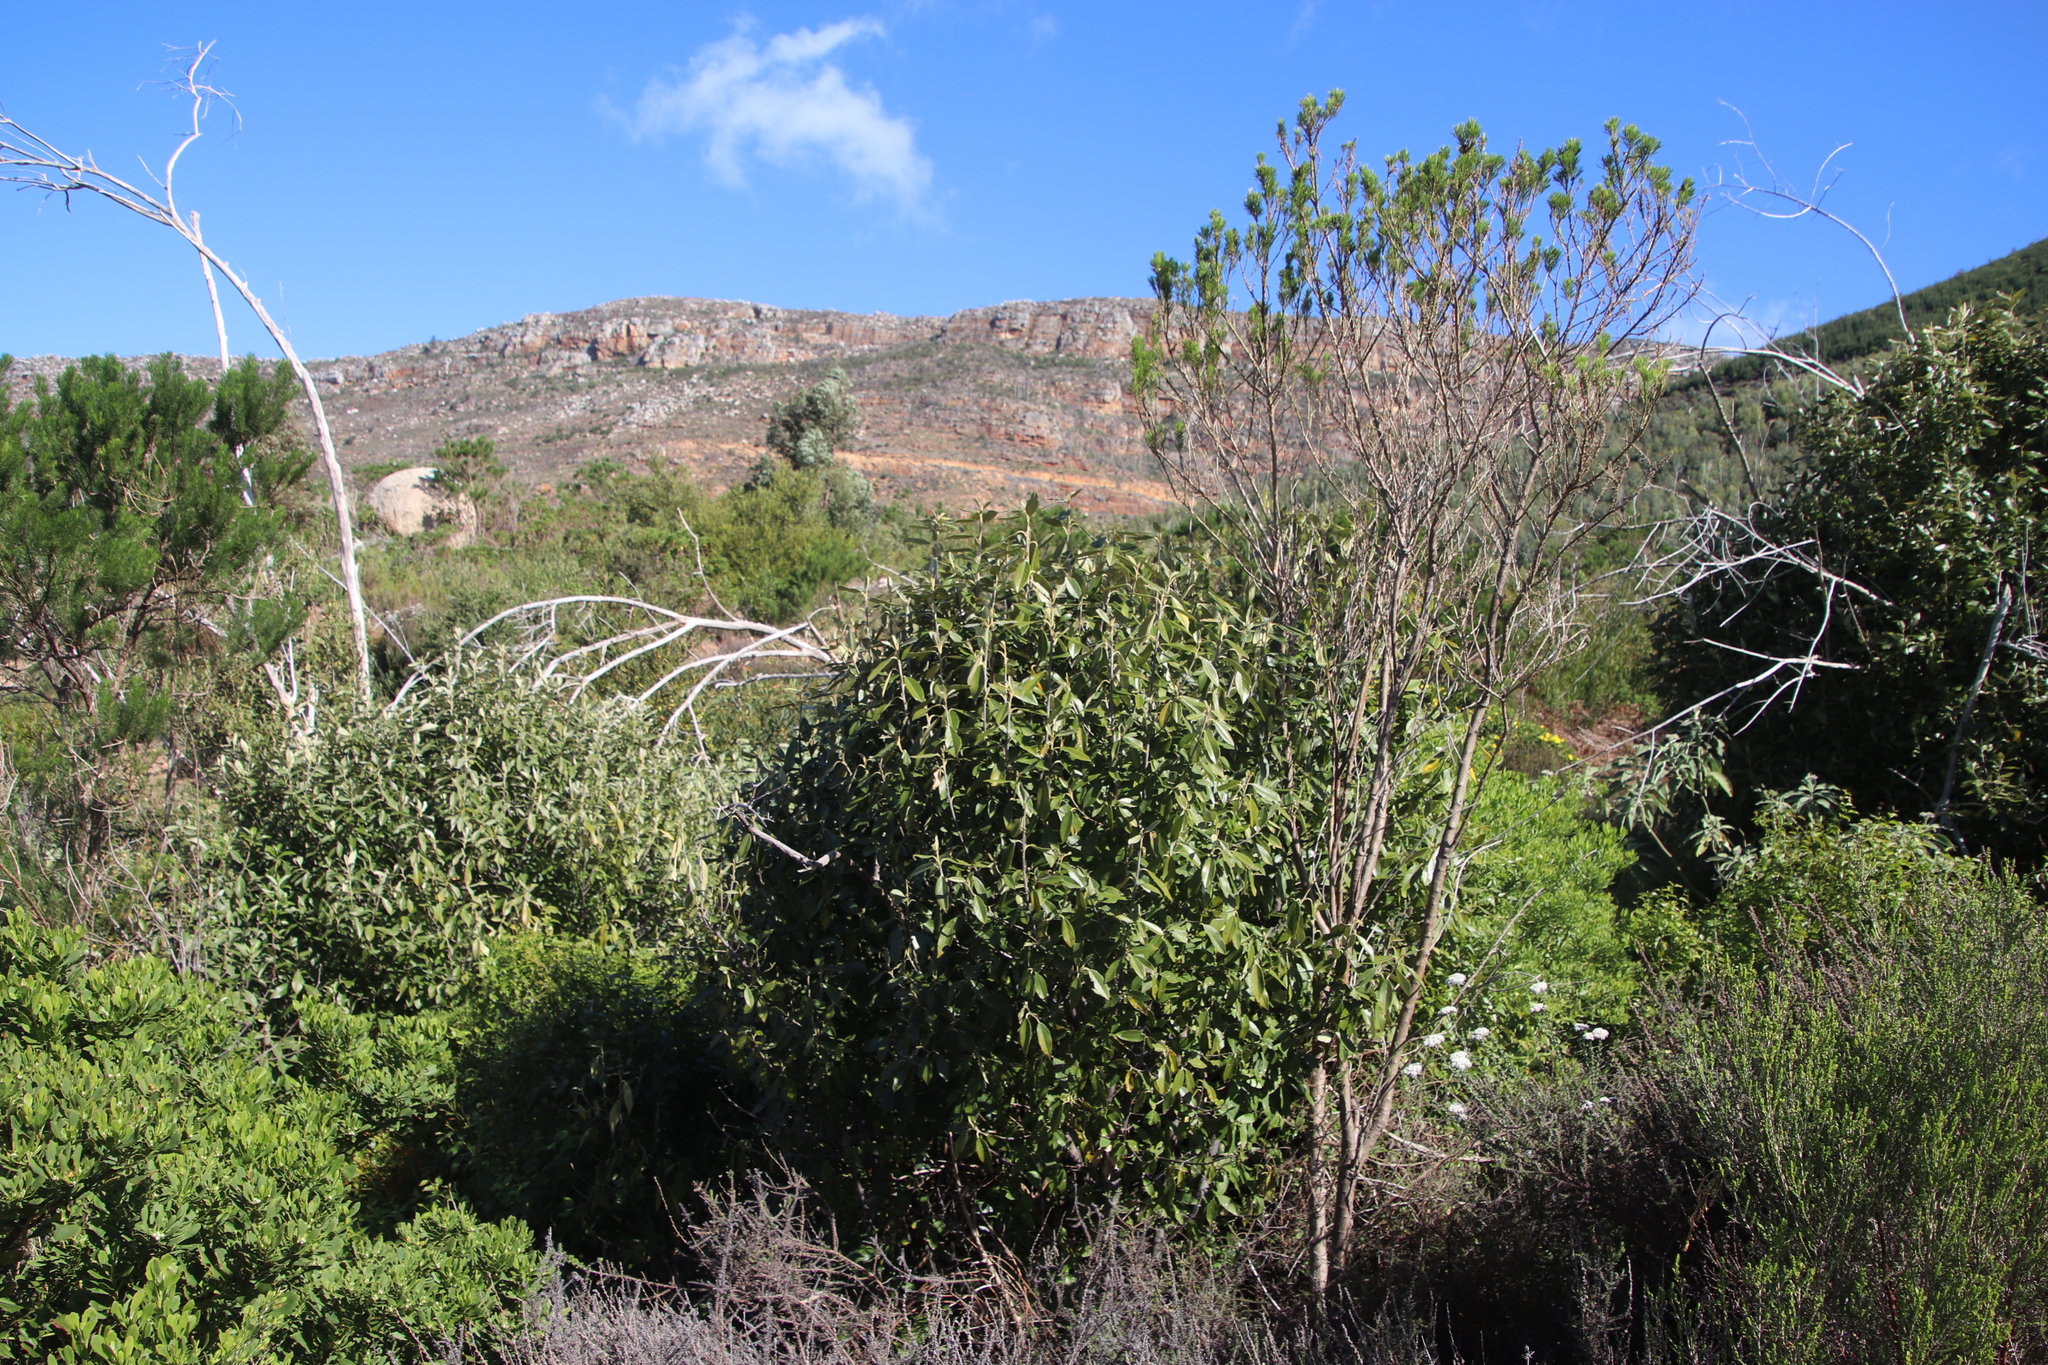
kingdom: Plantae
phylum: Tracheophyta
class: Magnoliopsida
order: Malpighiales
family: Achariaceae
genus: Kiggelaria
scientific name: Kiggelaria africana
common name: Wild peach
